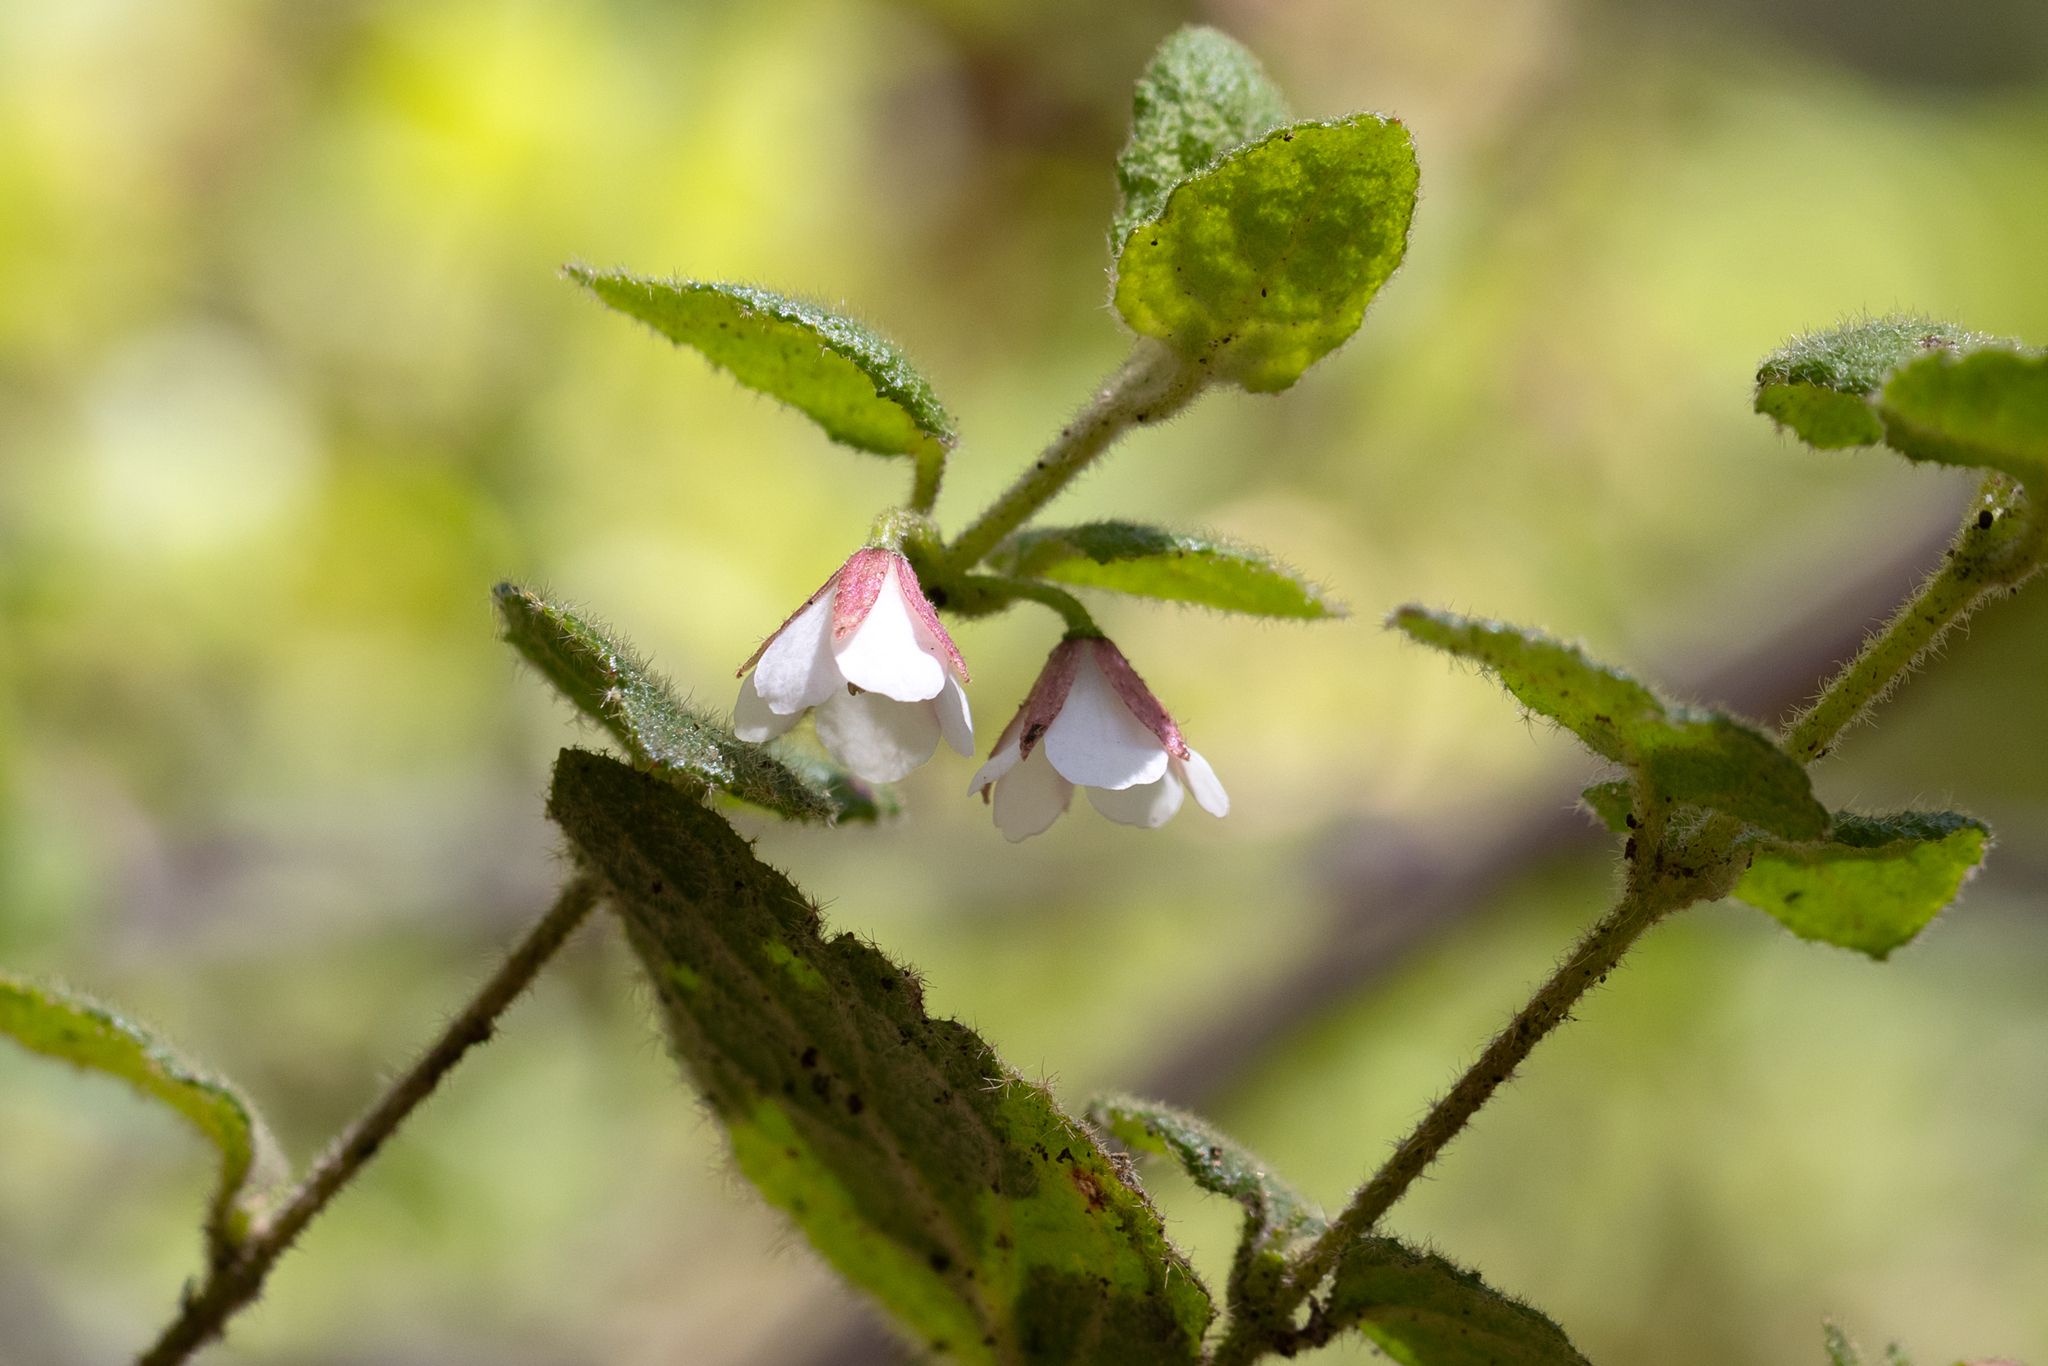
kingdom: Plantae
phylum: Tracheophyta
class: Magnoliopsida
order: Oxalidales
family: Elaeocarpaceae
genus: Tremandra
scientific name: Tremandra diffusa
